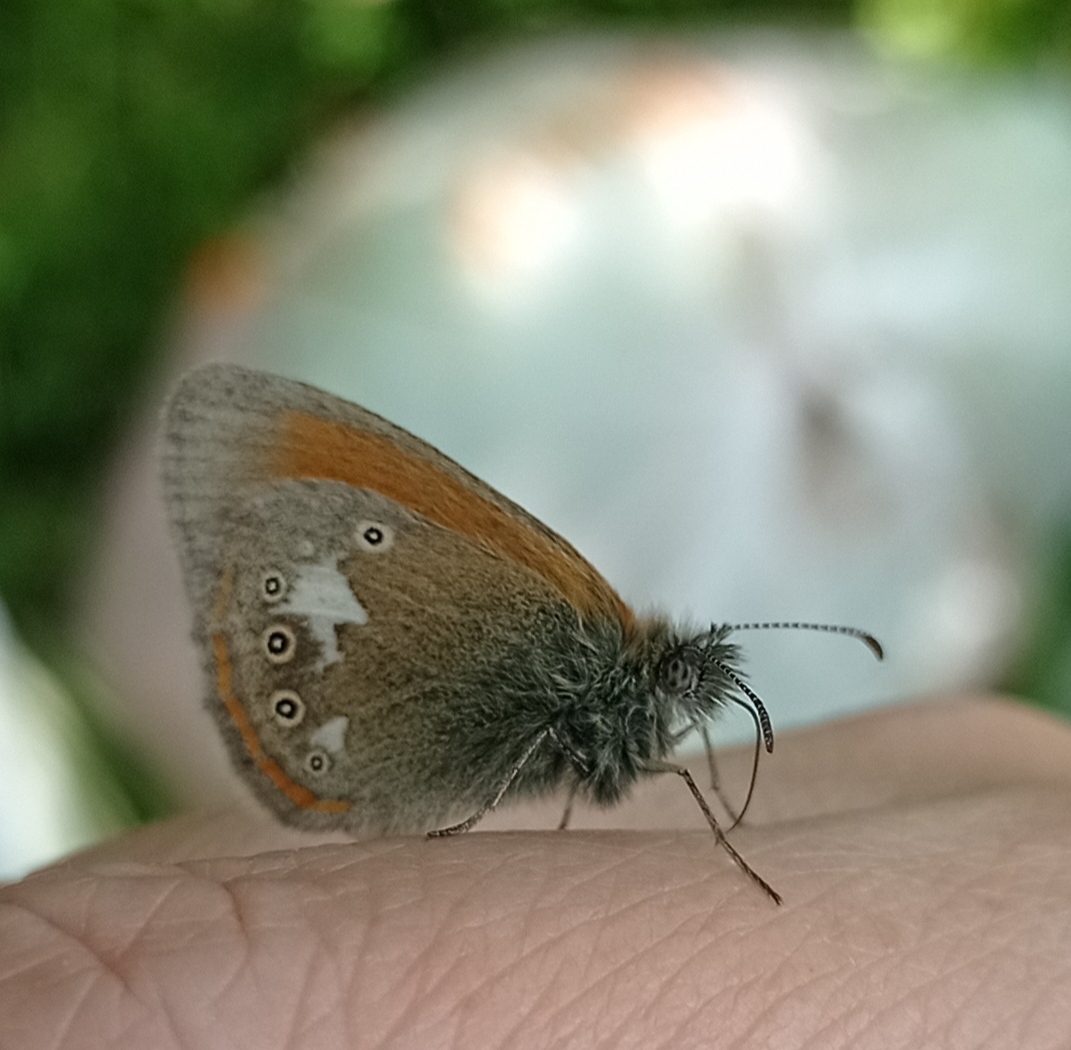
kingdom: Animalia
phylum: Arthropoda
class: Insecta
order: Lepidoptera
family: Nymphalidae
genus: Coenonympha
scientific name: Coenonympha iphis
